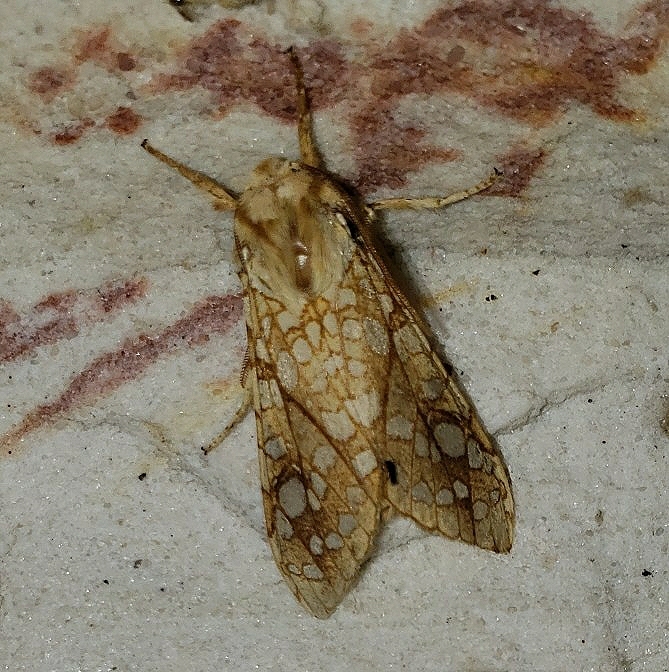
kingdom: Animalia
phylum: Arthropoda
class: Insecta
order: Lepidoptera
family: Erebidae
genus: Lophocampa
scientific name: Lophocampa caryae
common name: Hickory tussock moth
